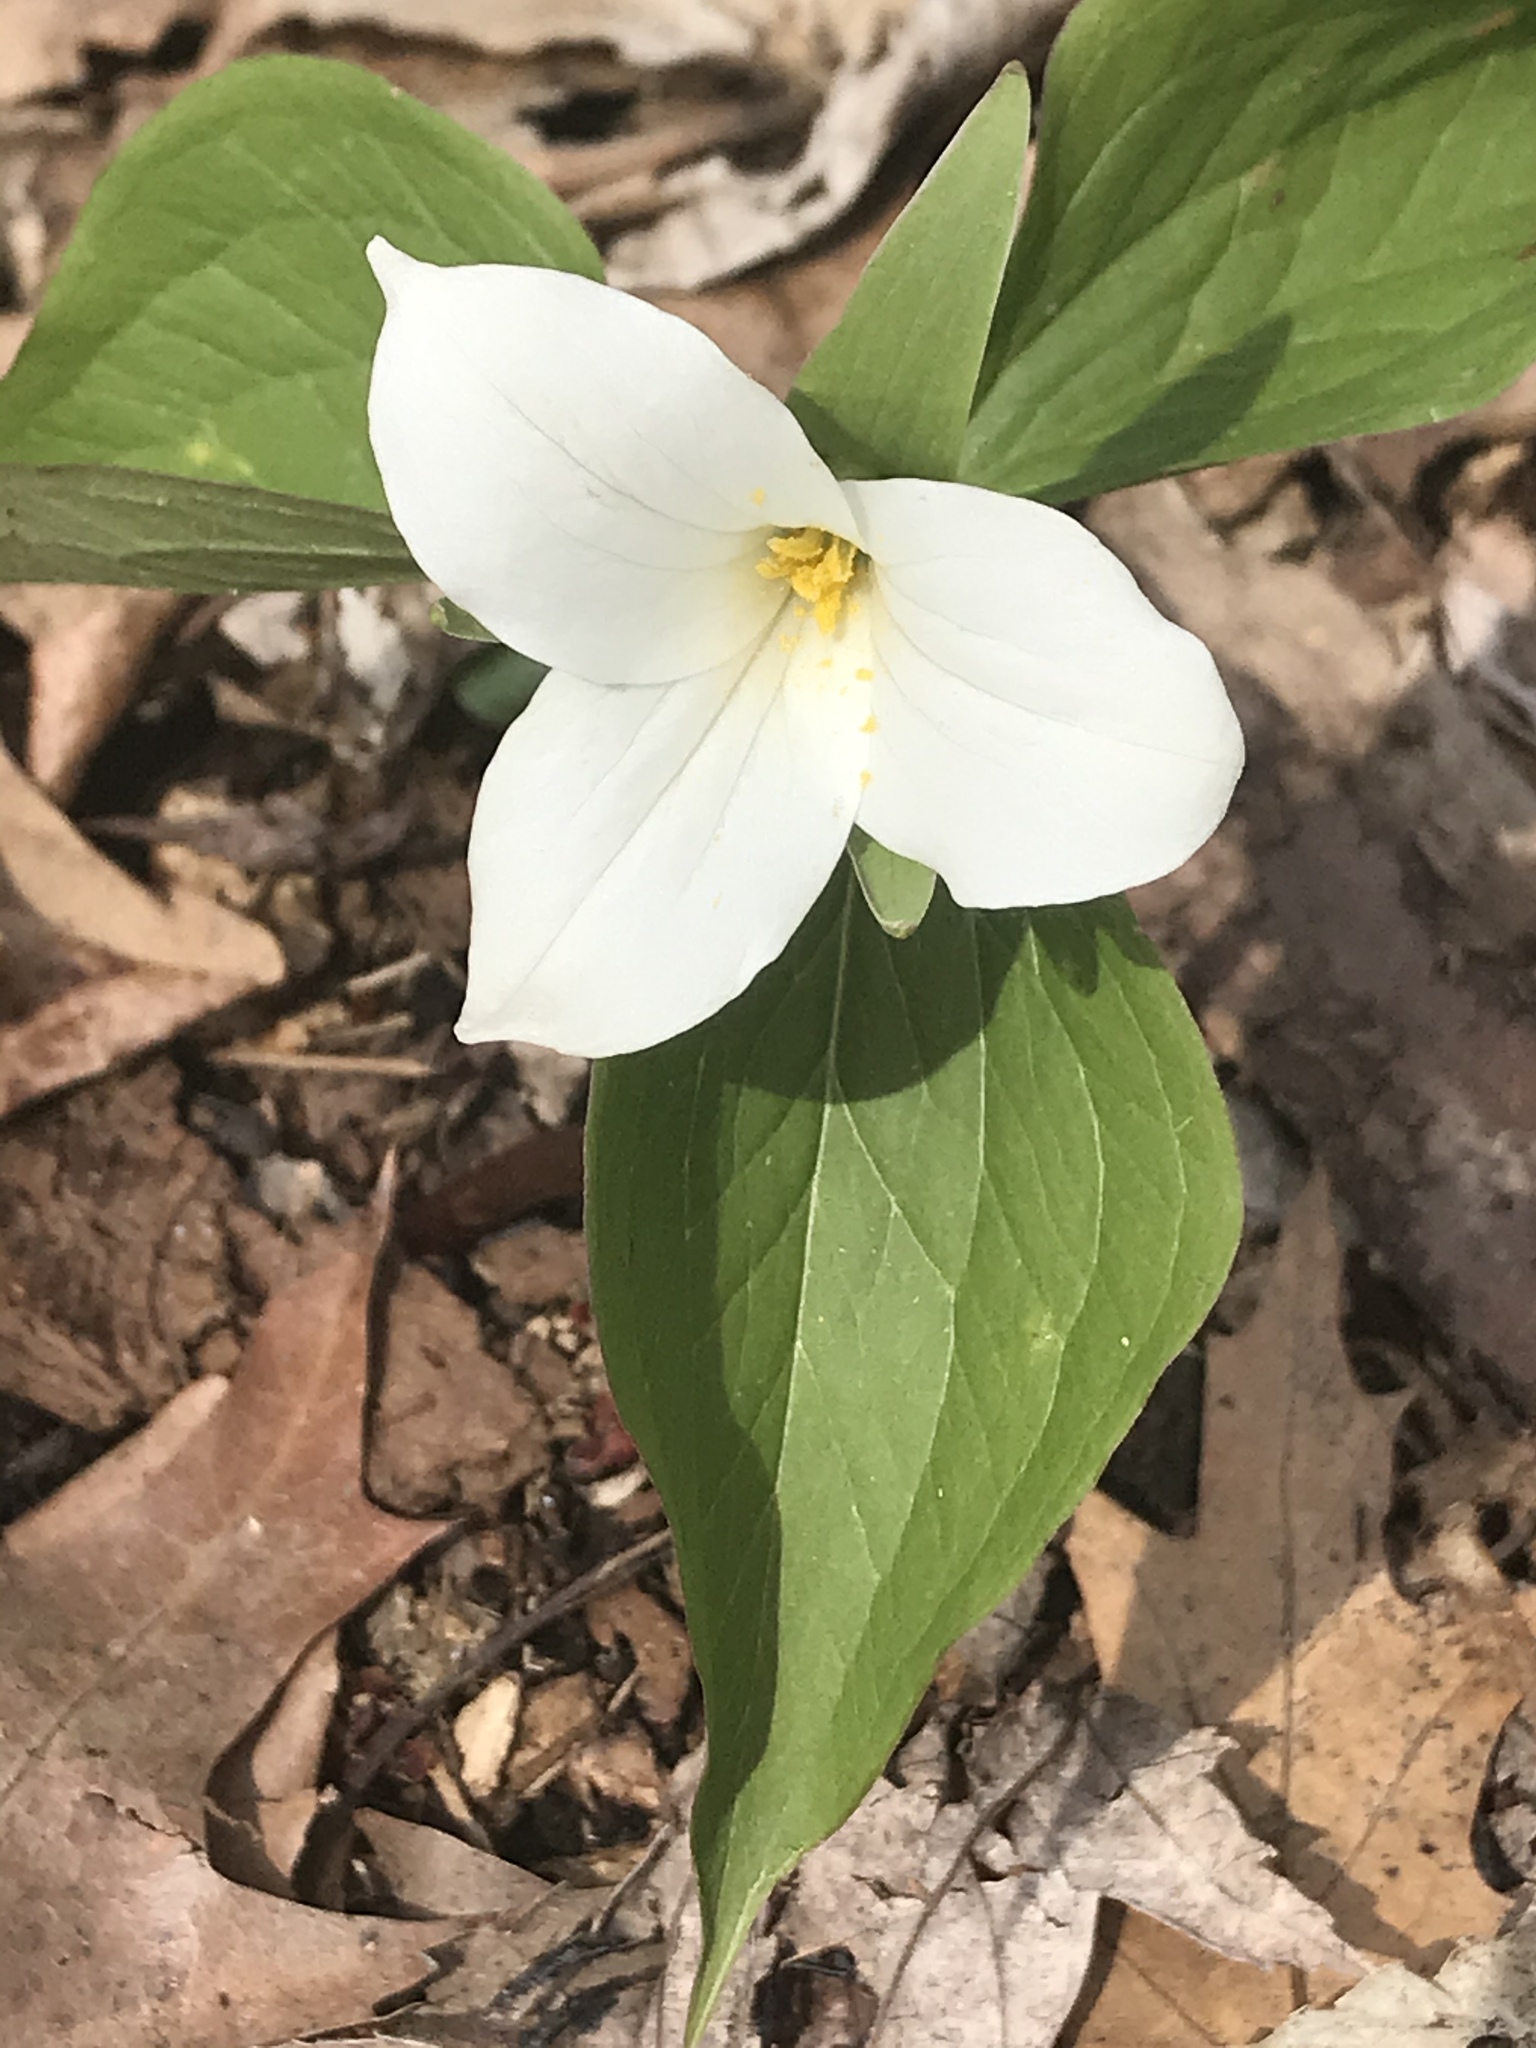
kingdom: Plantae
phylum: Tracheophyta
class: Liliopsida
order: Liliales
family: Melanthiaceae
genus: Trillium
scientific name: Trillium grandiflorum
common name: Great white trillium
